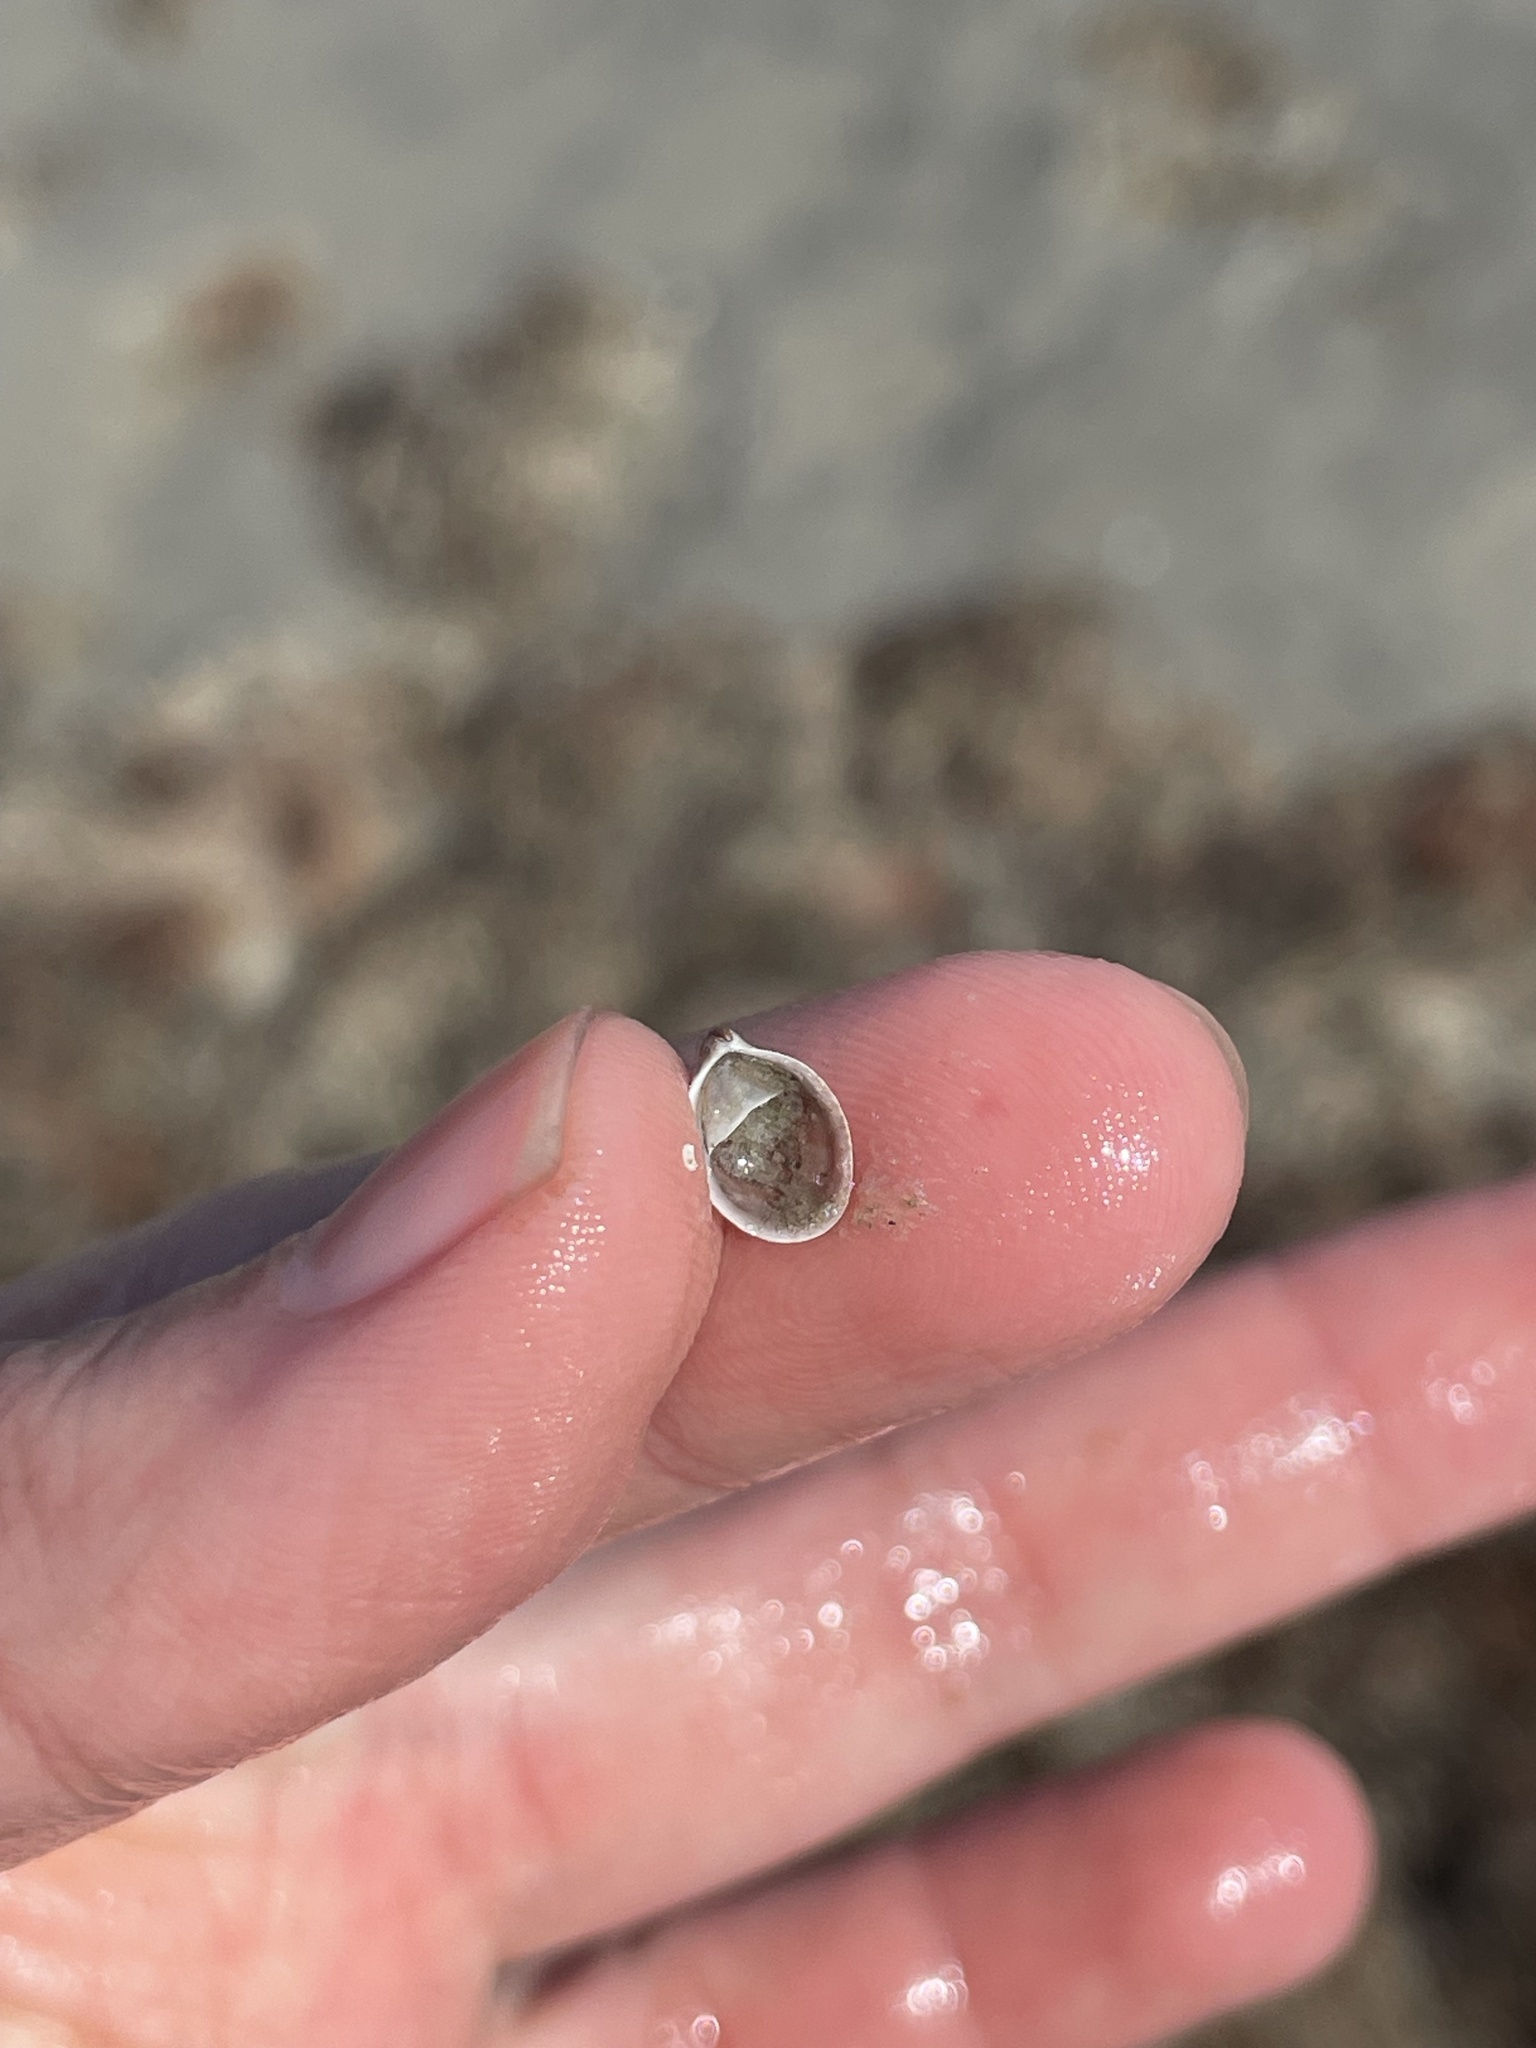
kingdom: Animalia
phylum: Mollusca
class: Gastropoda
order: Littorinimorpha
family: Calyptraeidae
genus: Crepidula
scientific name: Crepidula fornicata
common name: Slipper limpet
